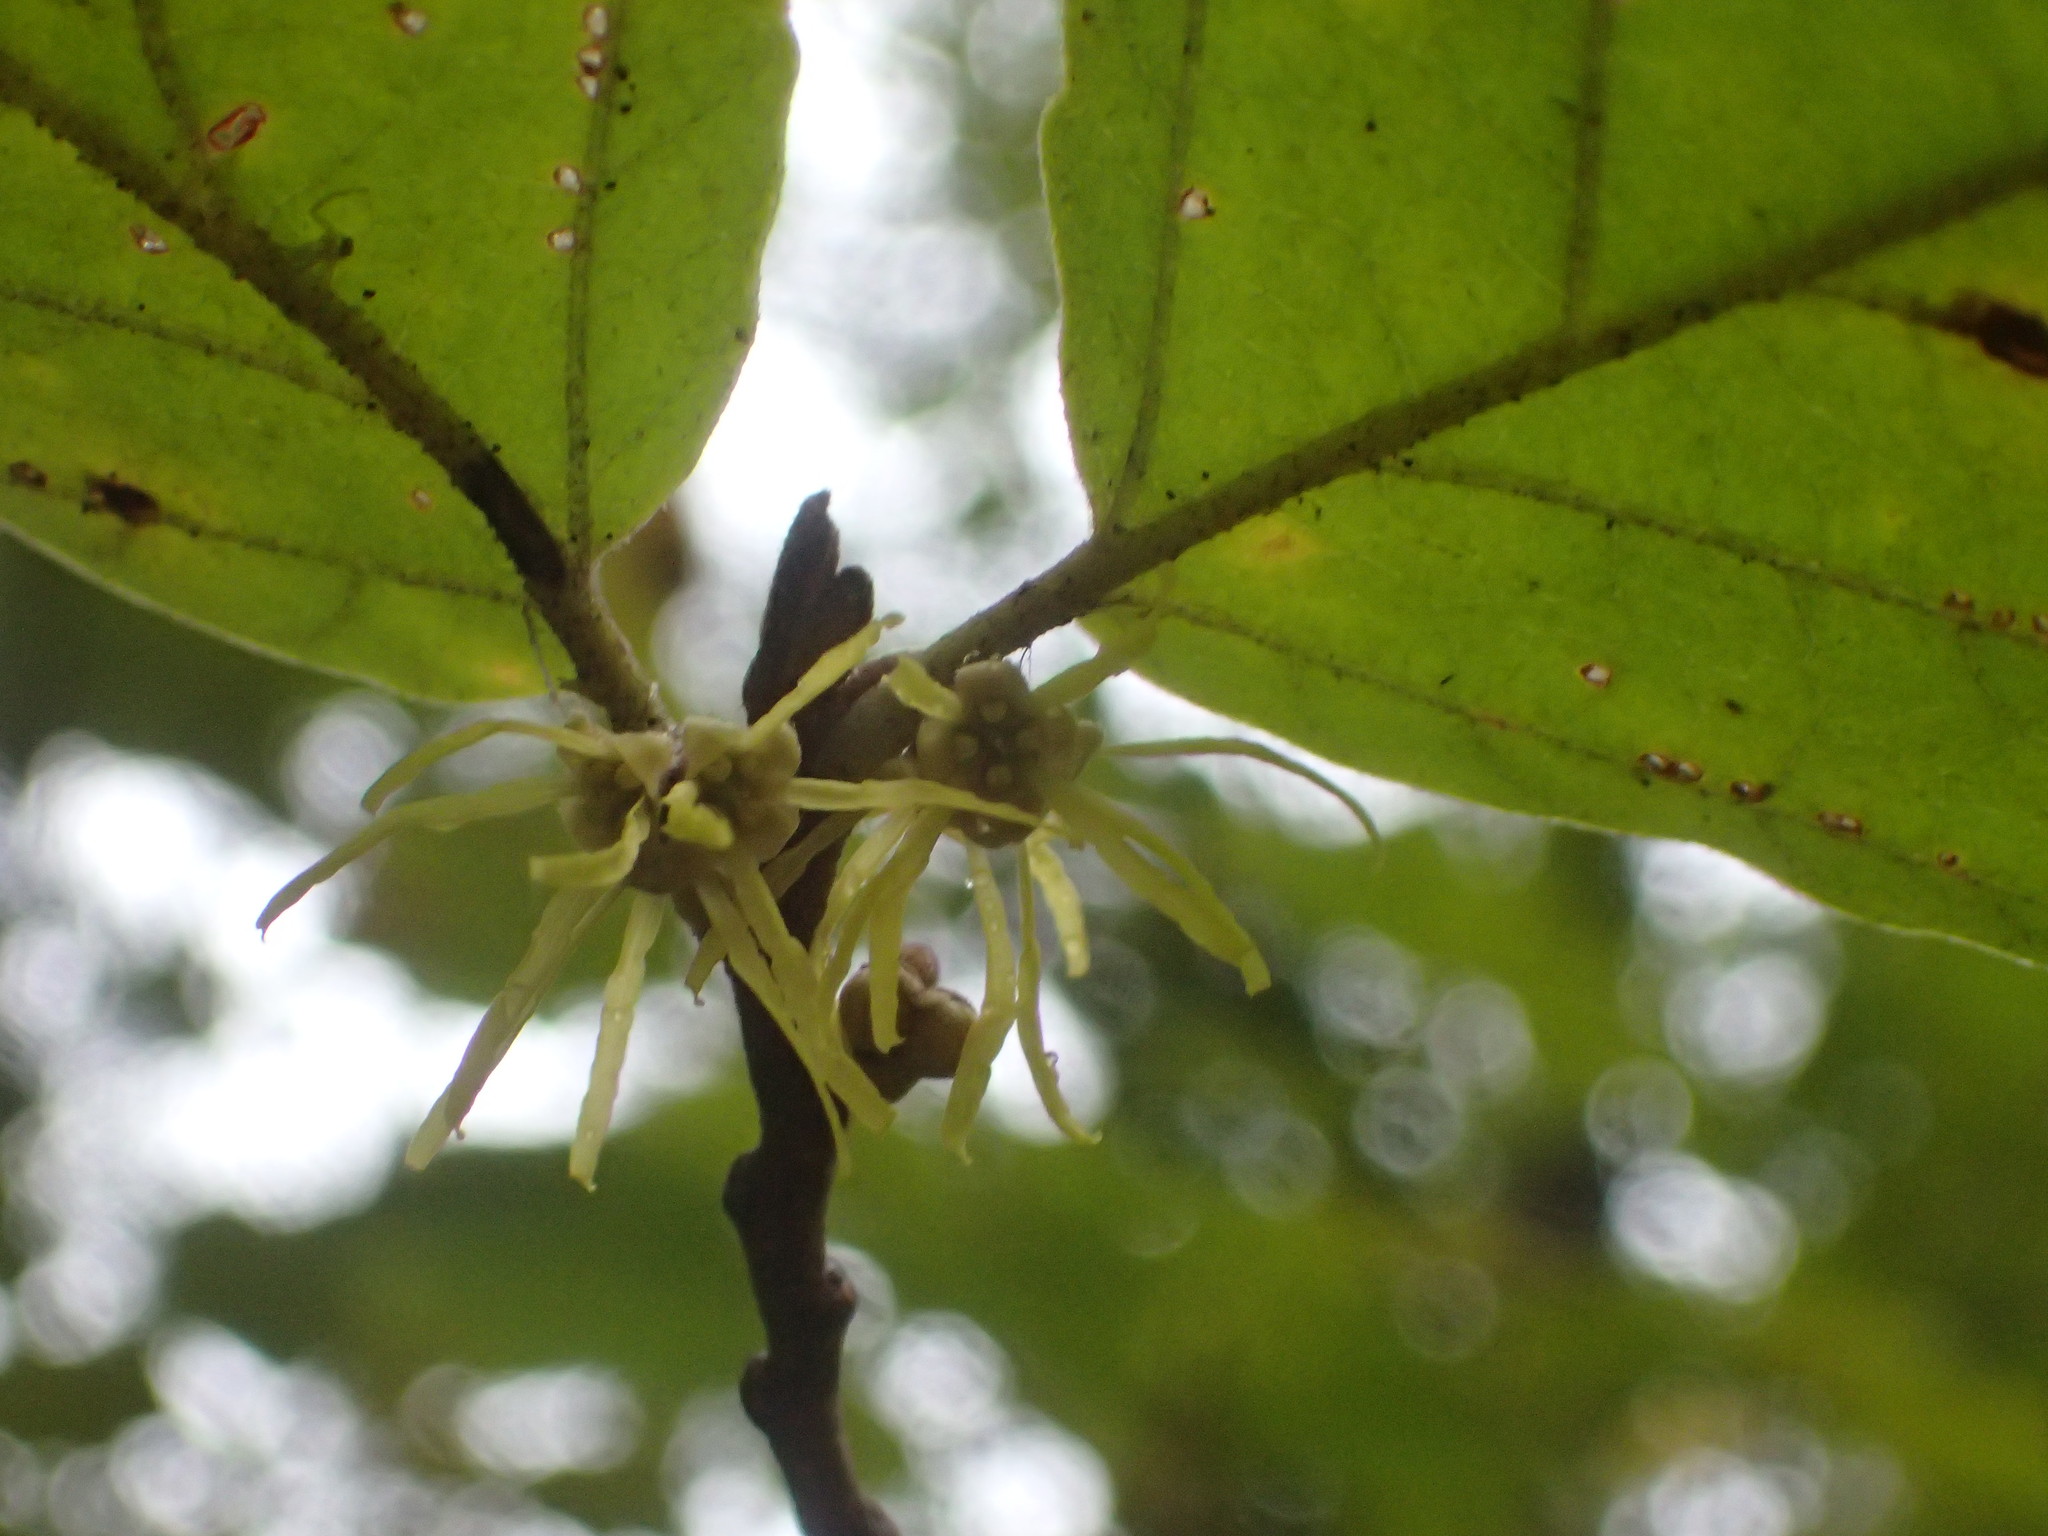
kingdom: Plantae
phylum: Tracheophyta
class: Magnoliopsida
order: Saxifragales
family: Hamamelidaceae
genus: Hamamelis
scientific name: Hamamelis virginiana
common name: Witch-hazel
